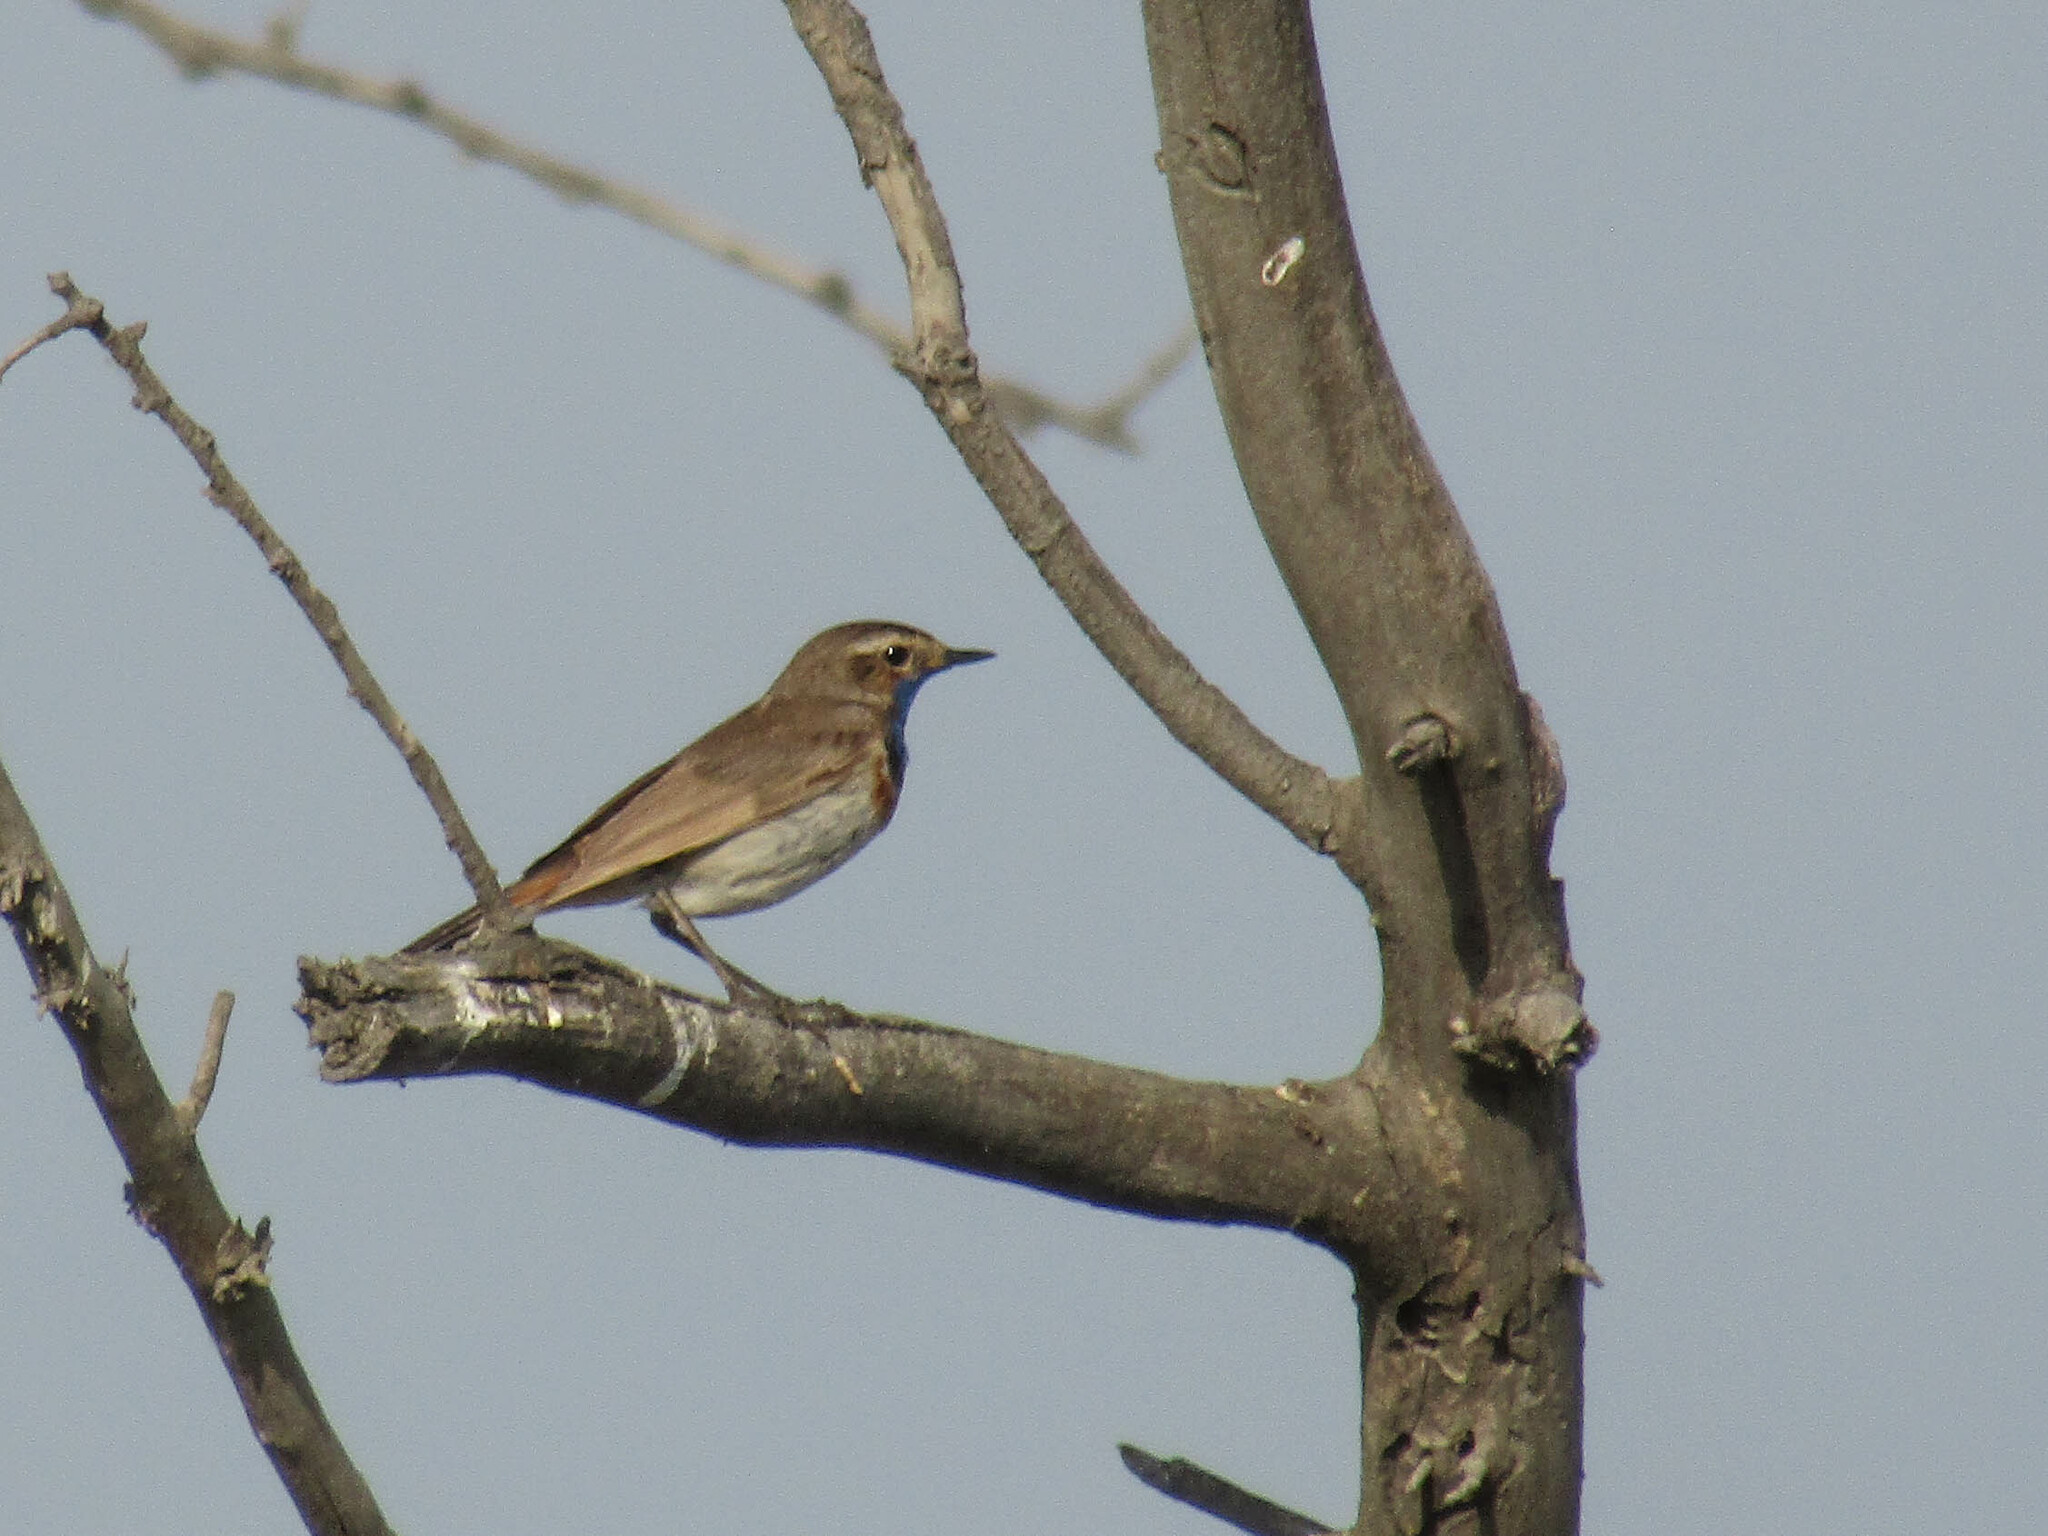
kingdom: Animalia
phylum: Chordata
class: Aves
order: Passeriformes
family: Muscicapidae
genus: Luscinia
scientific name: Luscinia svecica
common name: Bluethroat
